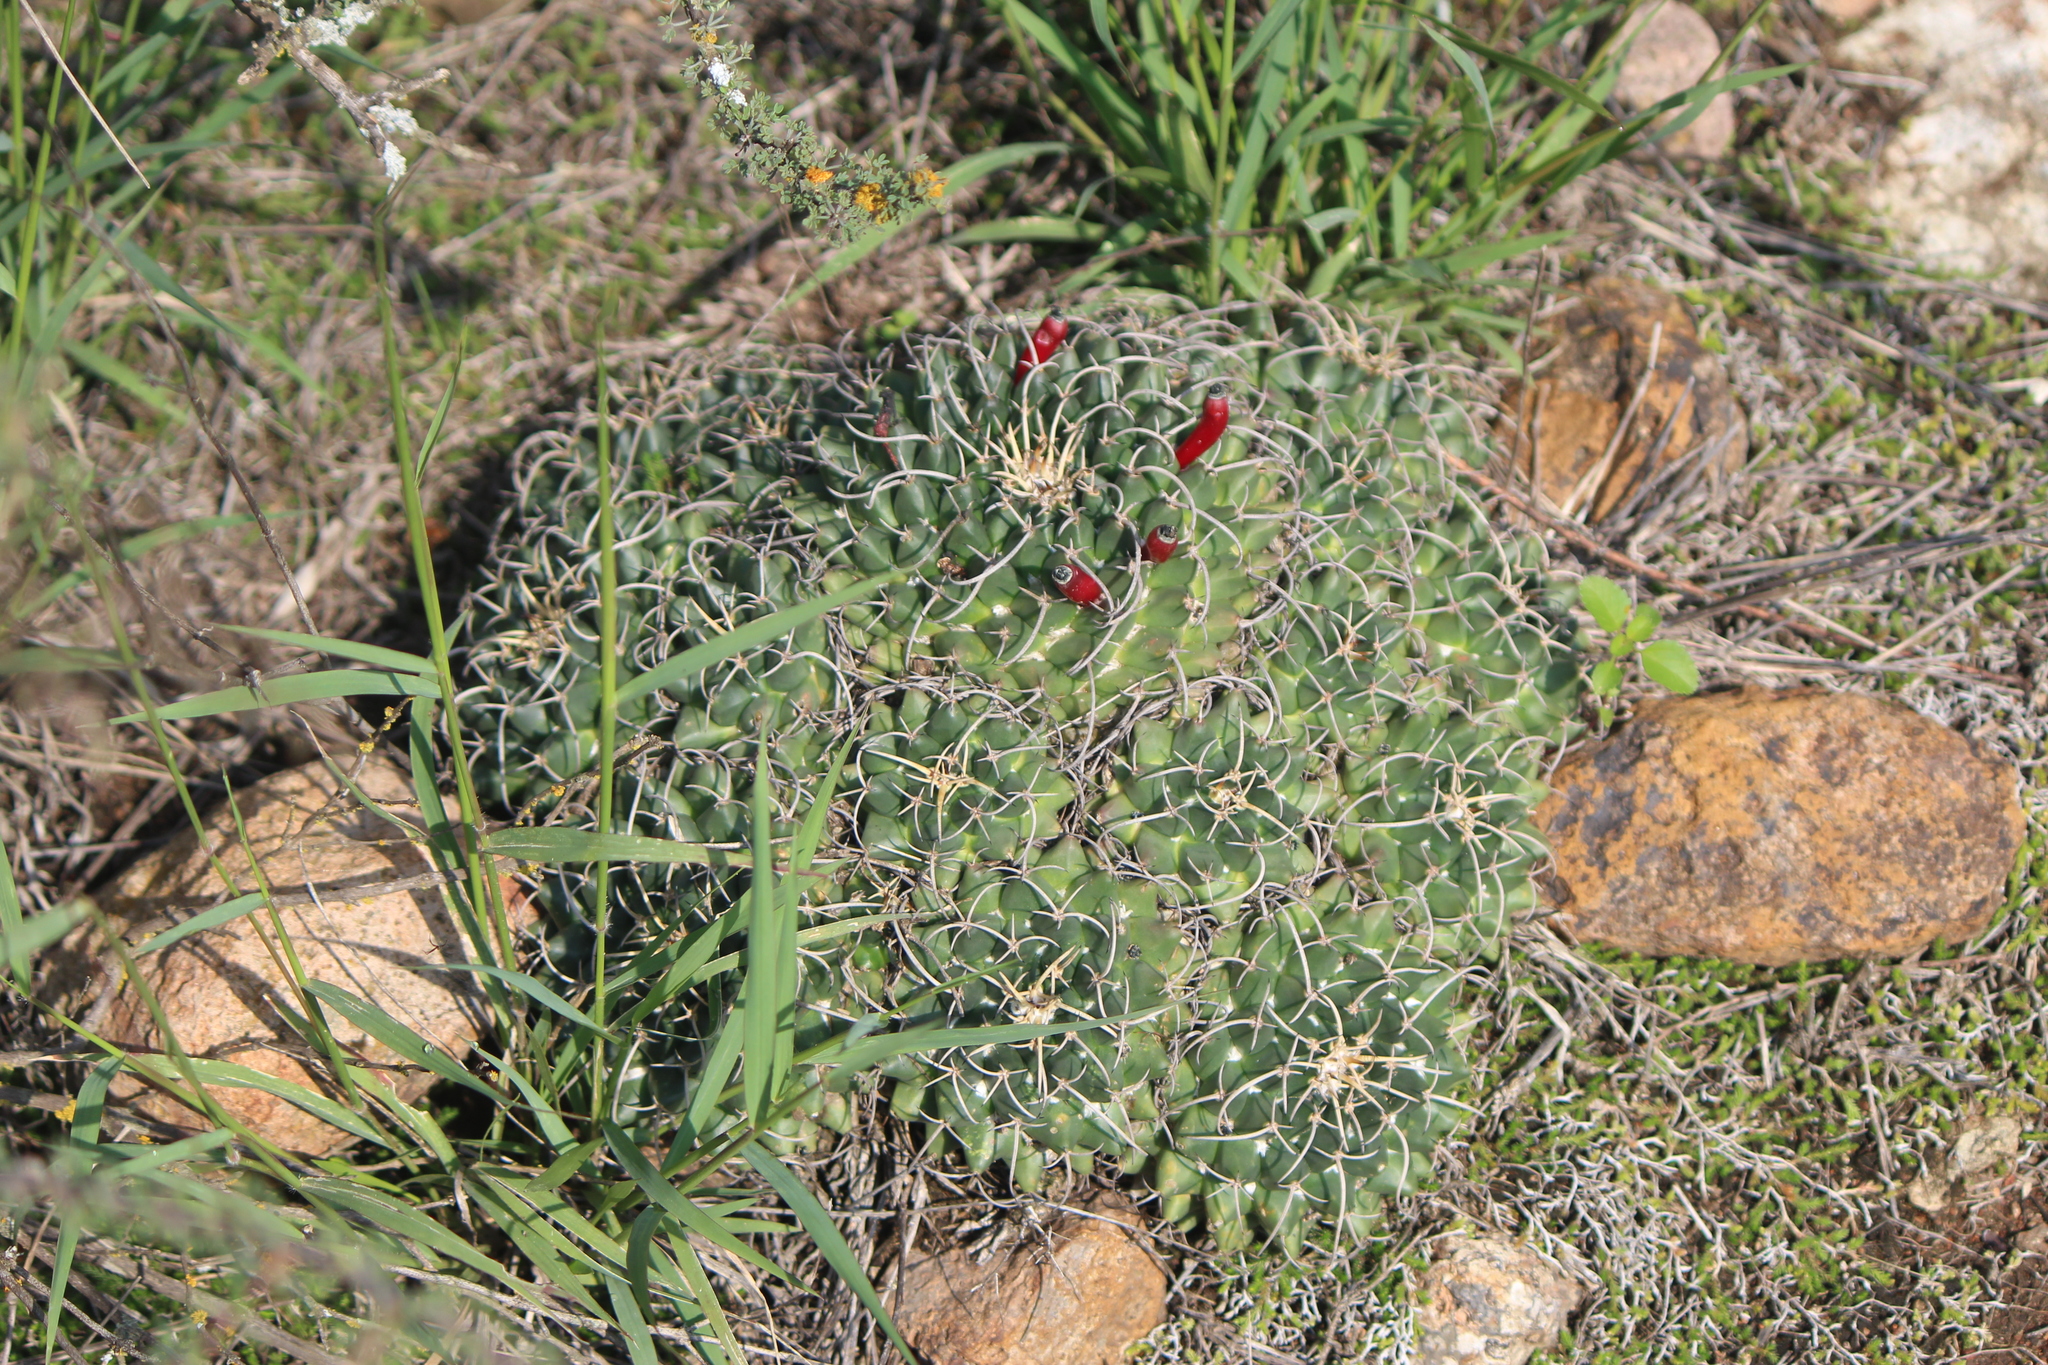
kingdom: Plantae
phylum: Tracheophyta
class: Magnoliopsida
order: Caryophyllales
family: Cactaceae
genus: Mammillaria
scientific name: Mammillaria magnimamma
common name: Mexican pincushion
